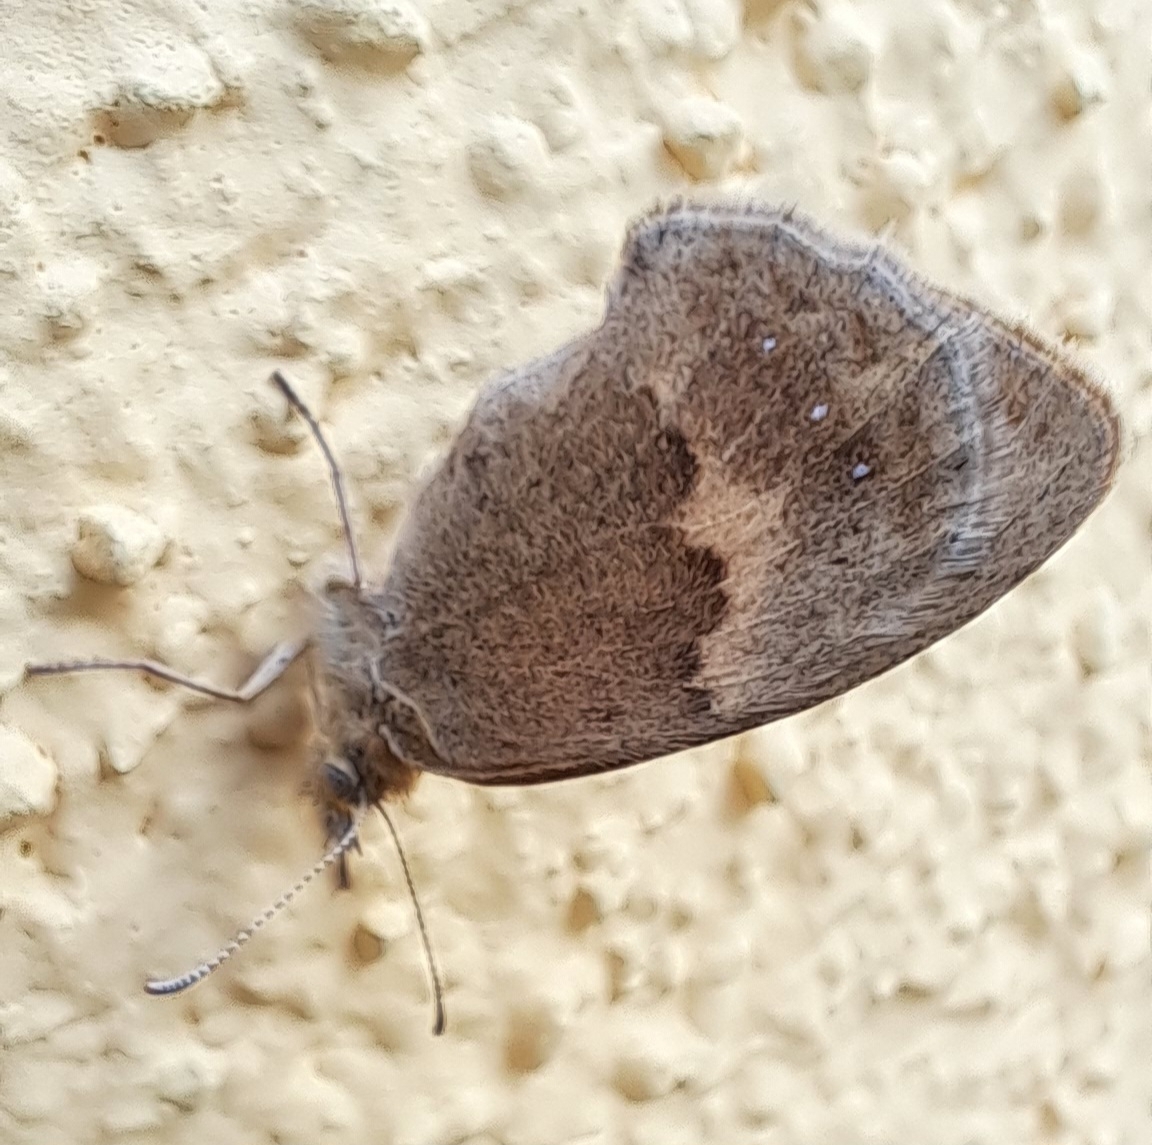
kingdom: Animalia
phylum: Arthropoda
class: Insecta
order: Lepidoptera
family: Nymphalidae
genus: Coenonympha
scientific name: Coenonympha pamphilus
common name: Small heath
